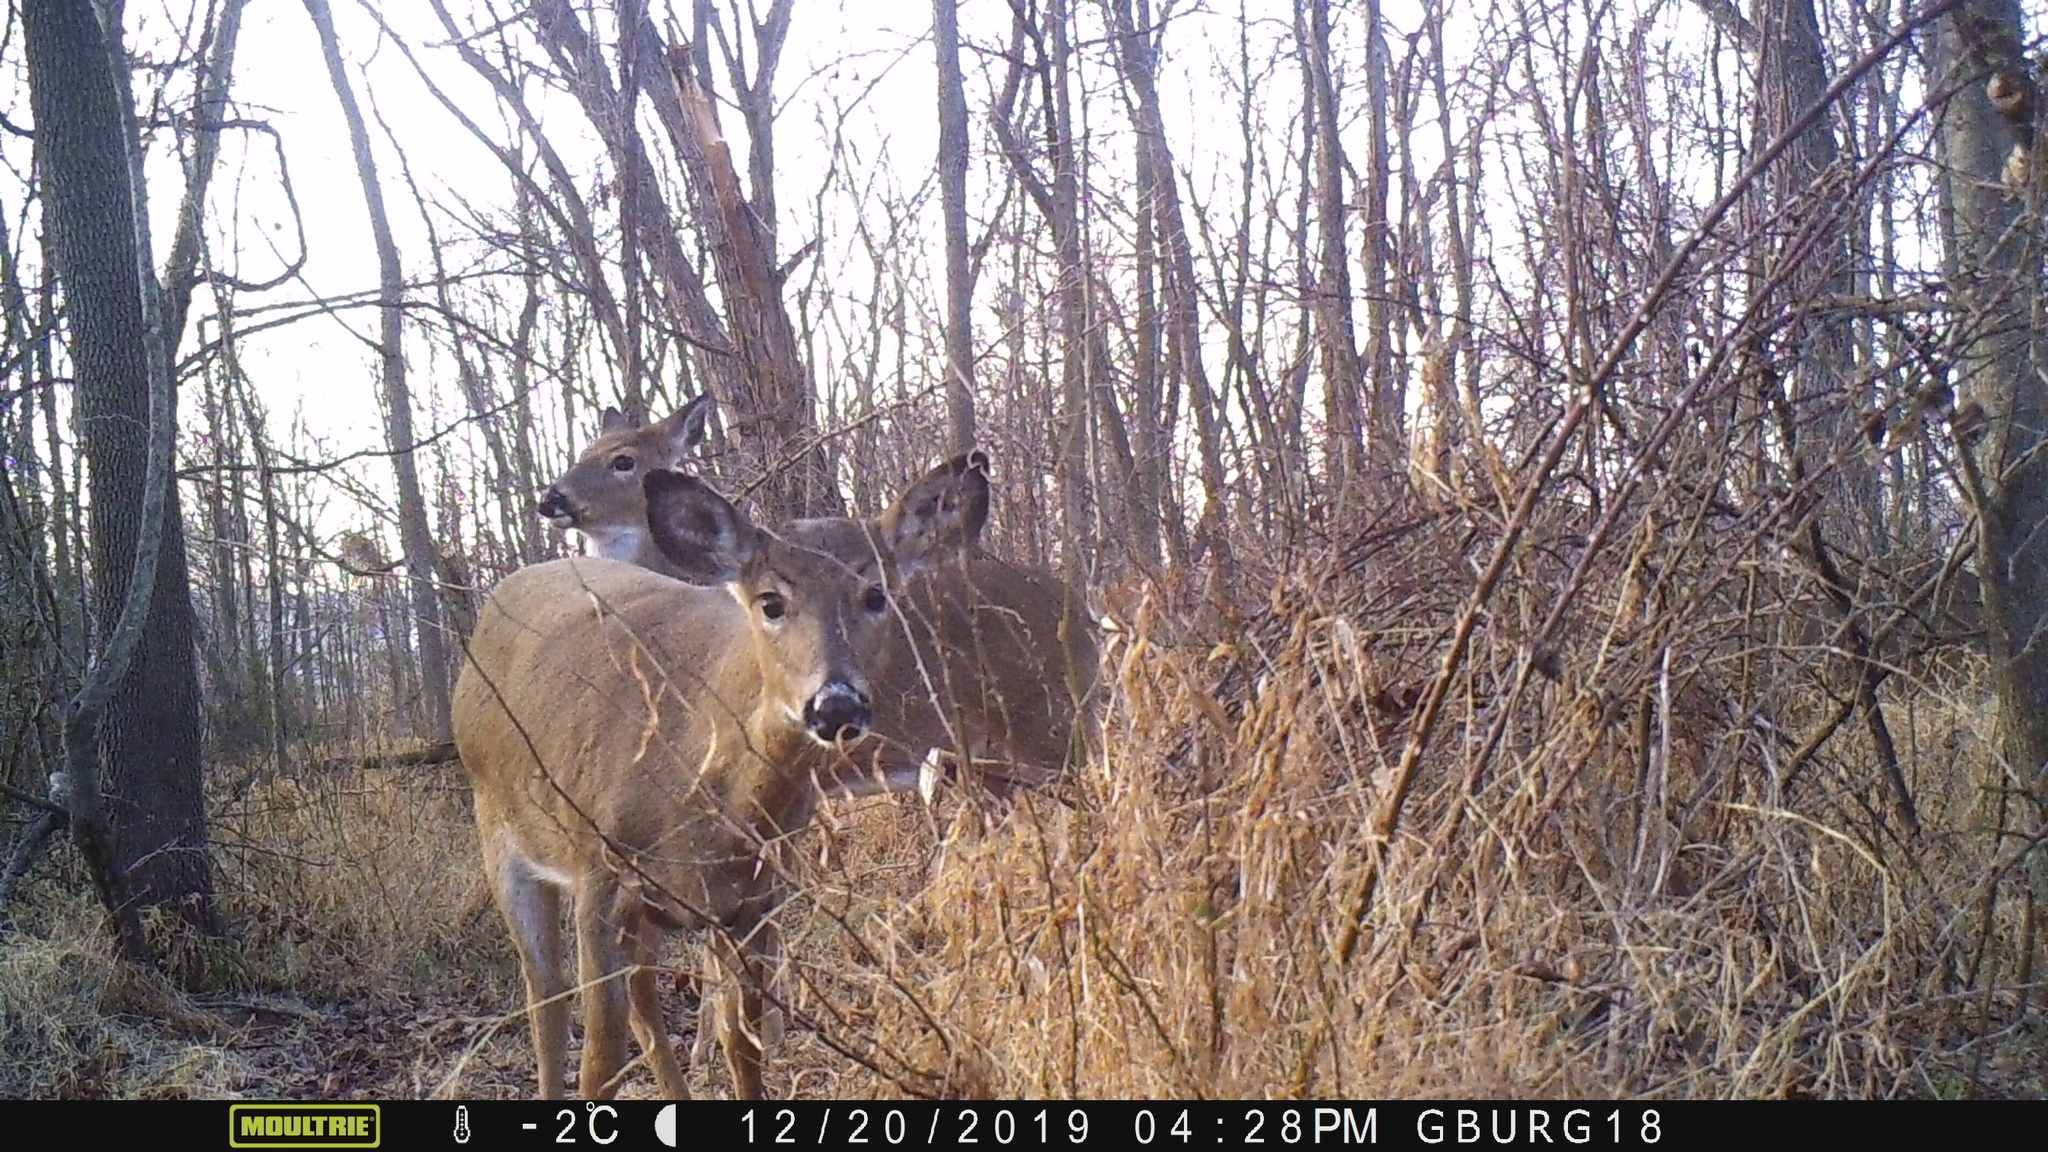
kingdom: Animalia
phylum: Chordata
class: Mammalia
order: Artiodactyla
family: Cervidae
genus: Odocoileus
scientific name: Odocoileus virginianus
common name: White-tailed deer
